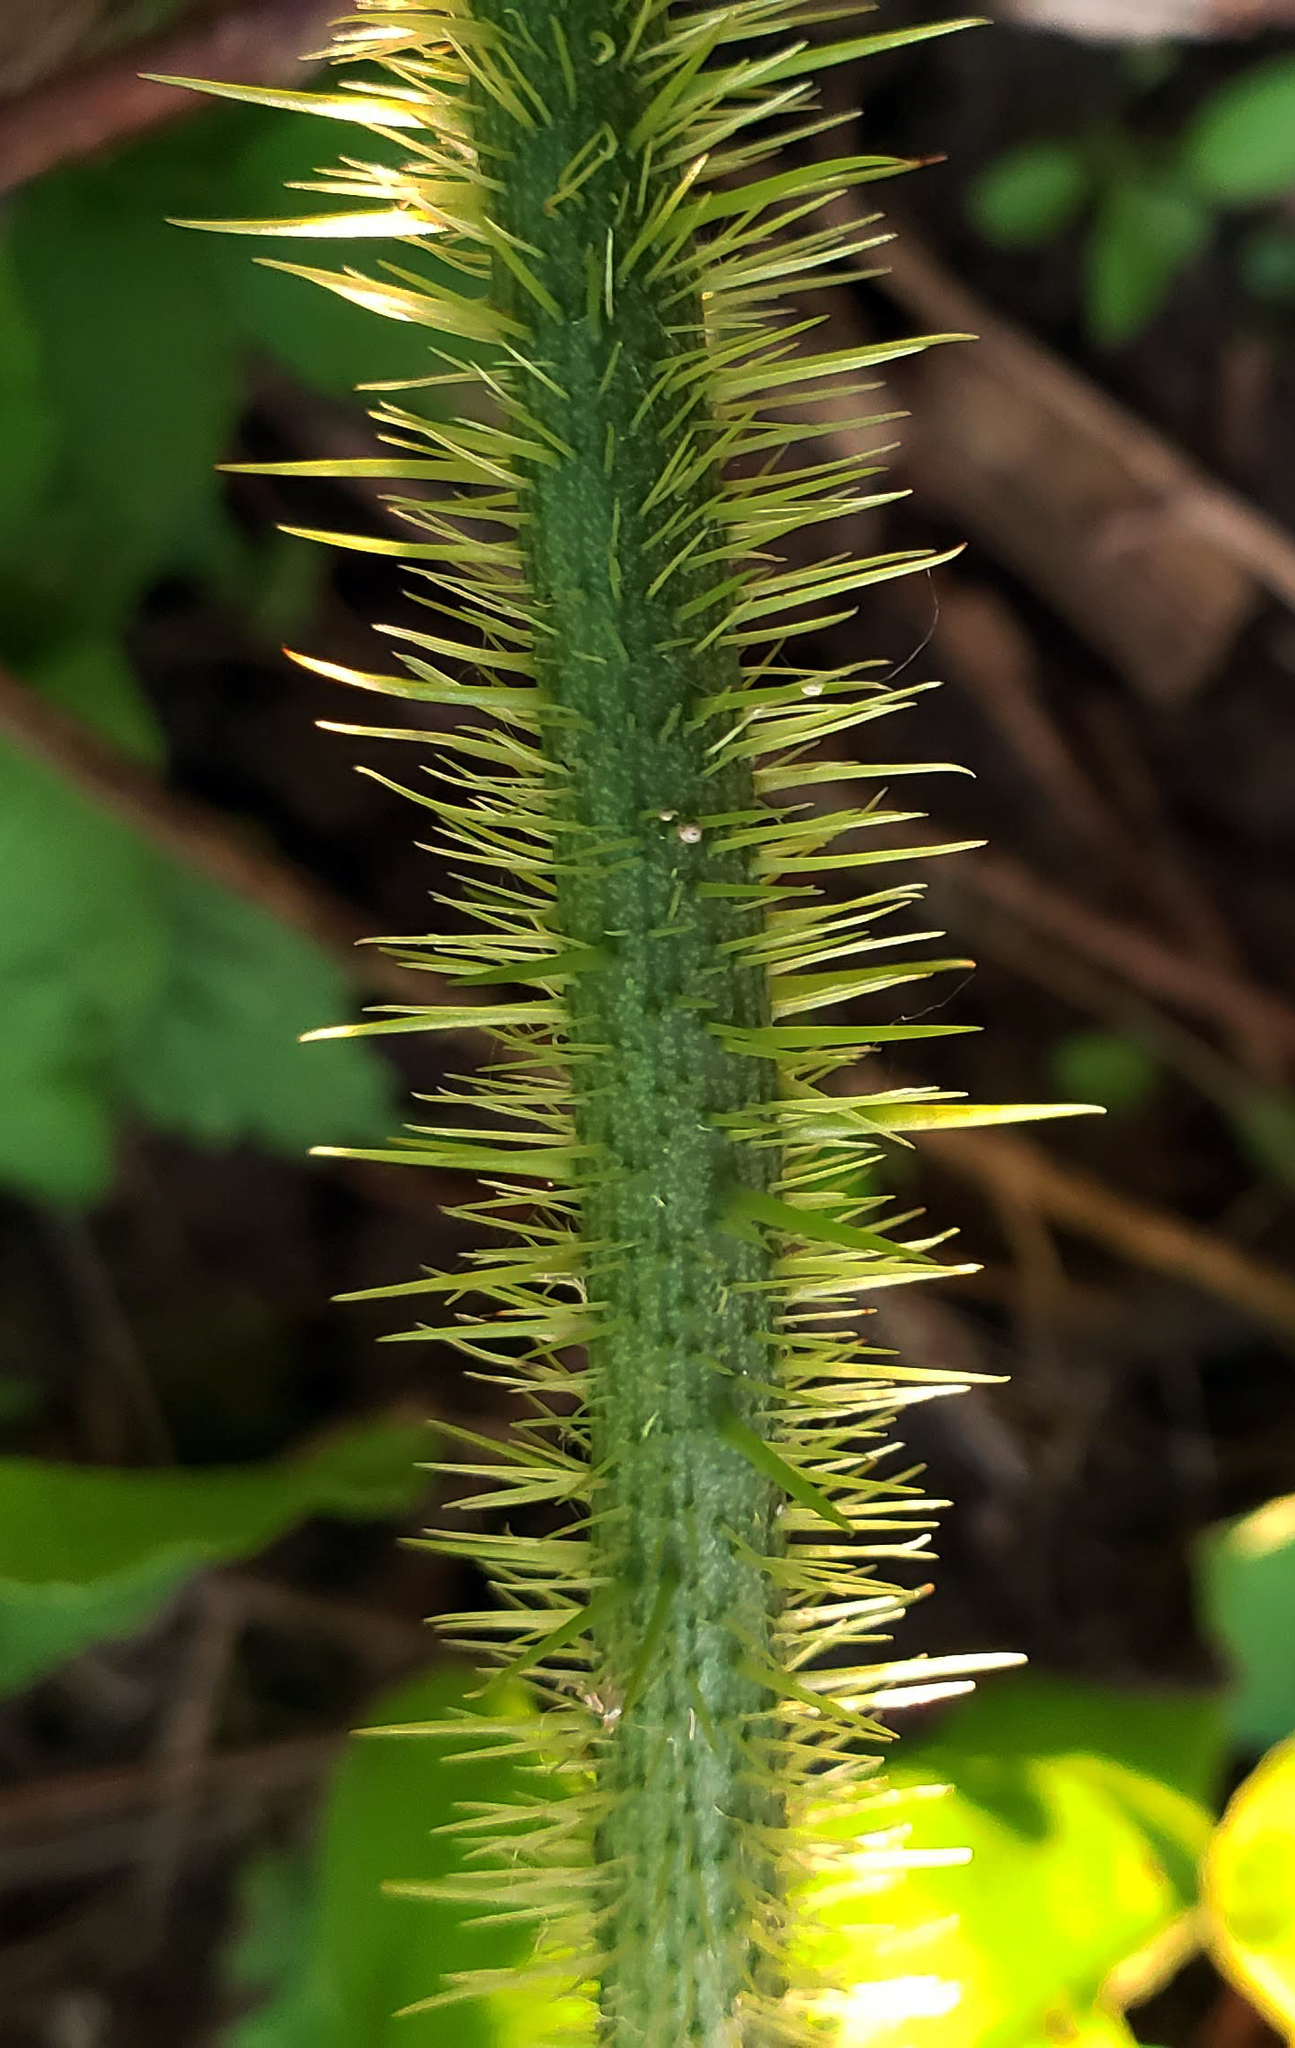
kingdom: Plantae
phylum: Tracheophyta
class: Liliopsida
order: Liliales
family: Smilacaceae
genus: Smilax
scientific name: Smilax tamnoides
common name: Hellfetter
